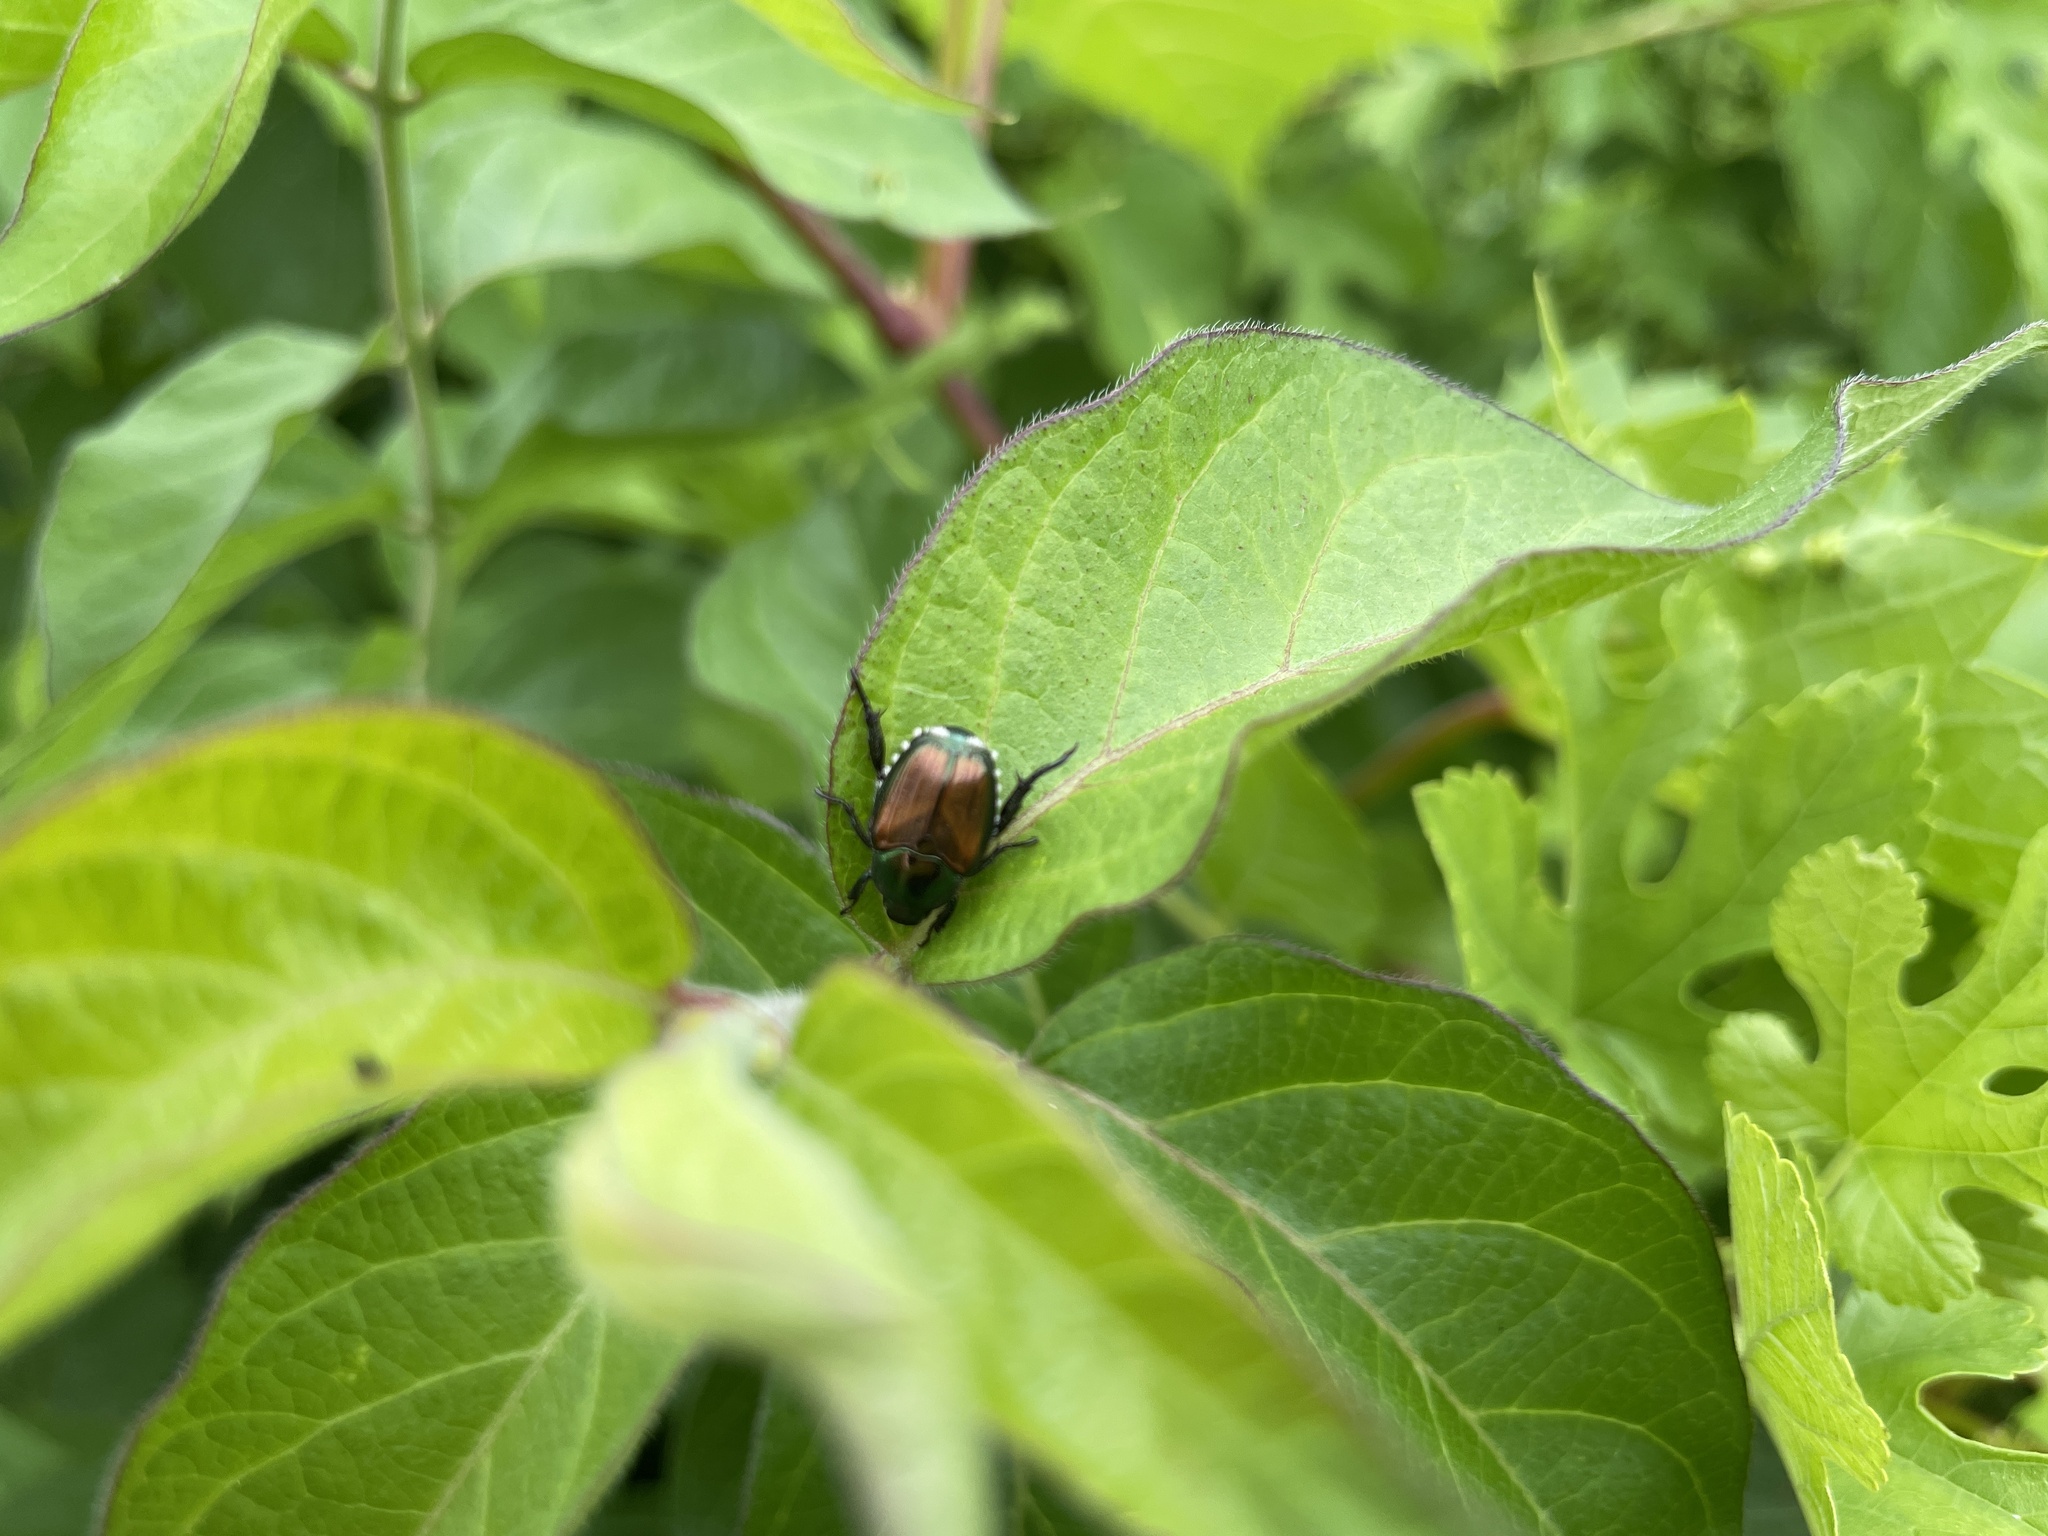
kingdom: Animalia
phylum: Arthropoda
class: Insecta
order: Coleoptera
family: Scarabaeidae
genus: Popillia
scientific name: Popillia japonica
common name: Japanese beetle
